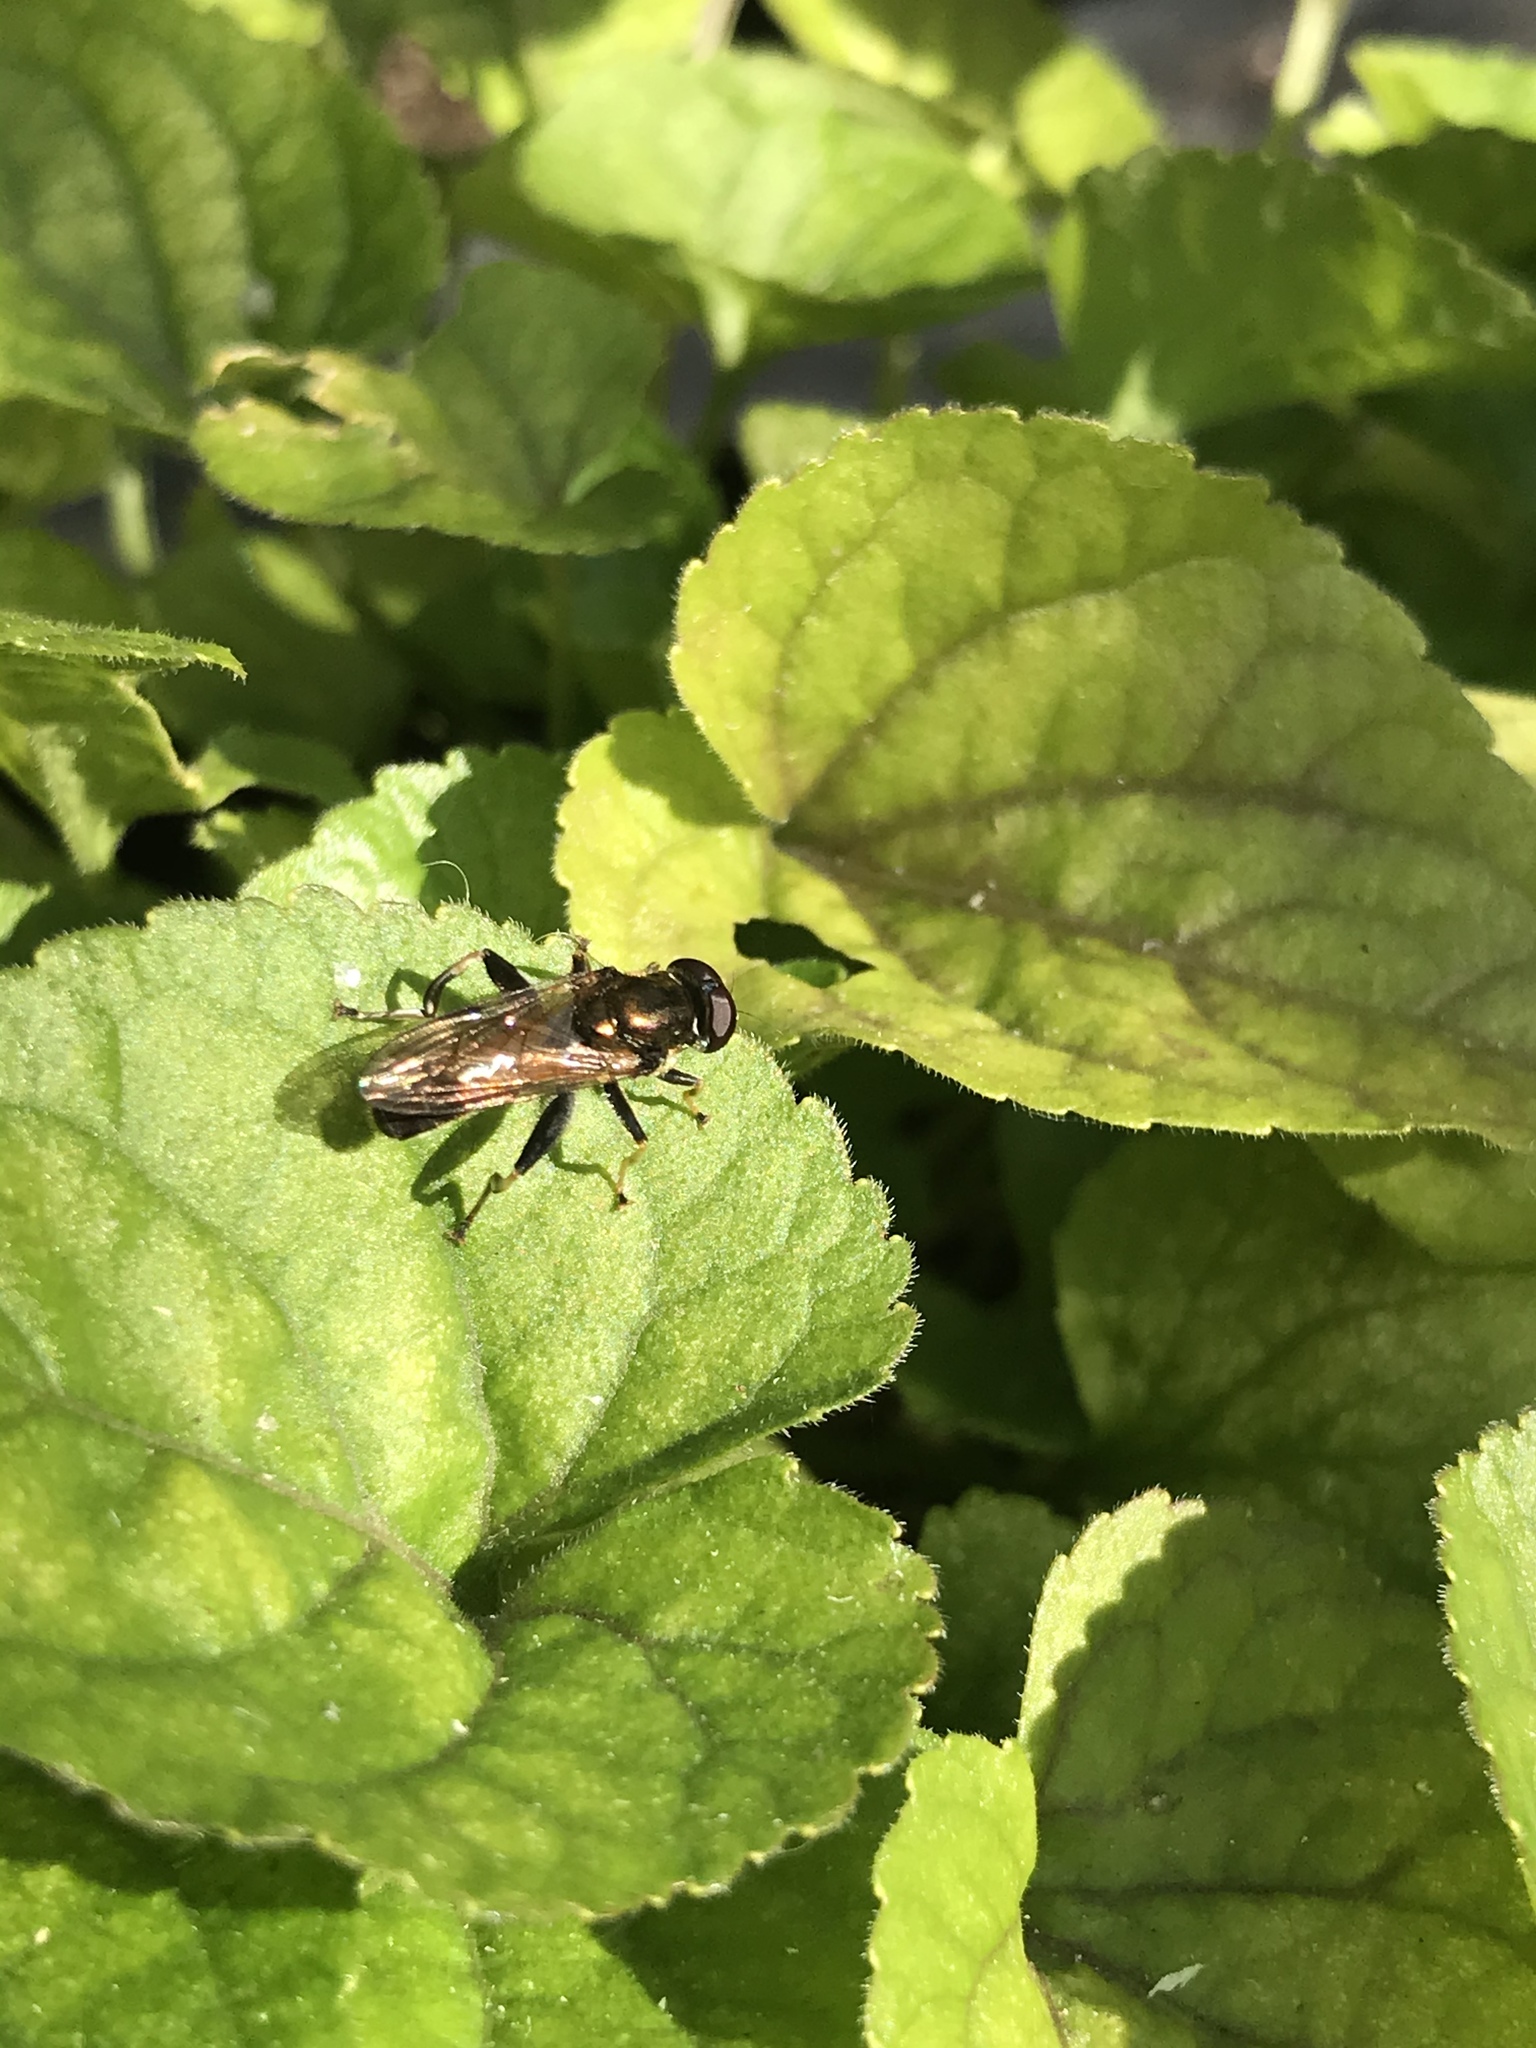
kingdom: Animalia
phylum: Arthropoda
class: Insecta
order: Diptera
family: Syrphidae
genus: Xylota
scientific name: Xylota segnis
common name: Brown-toed forest fly
